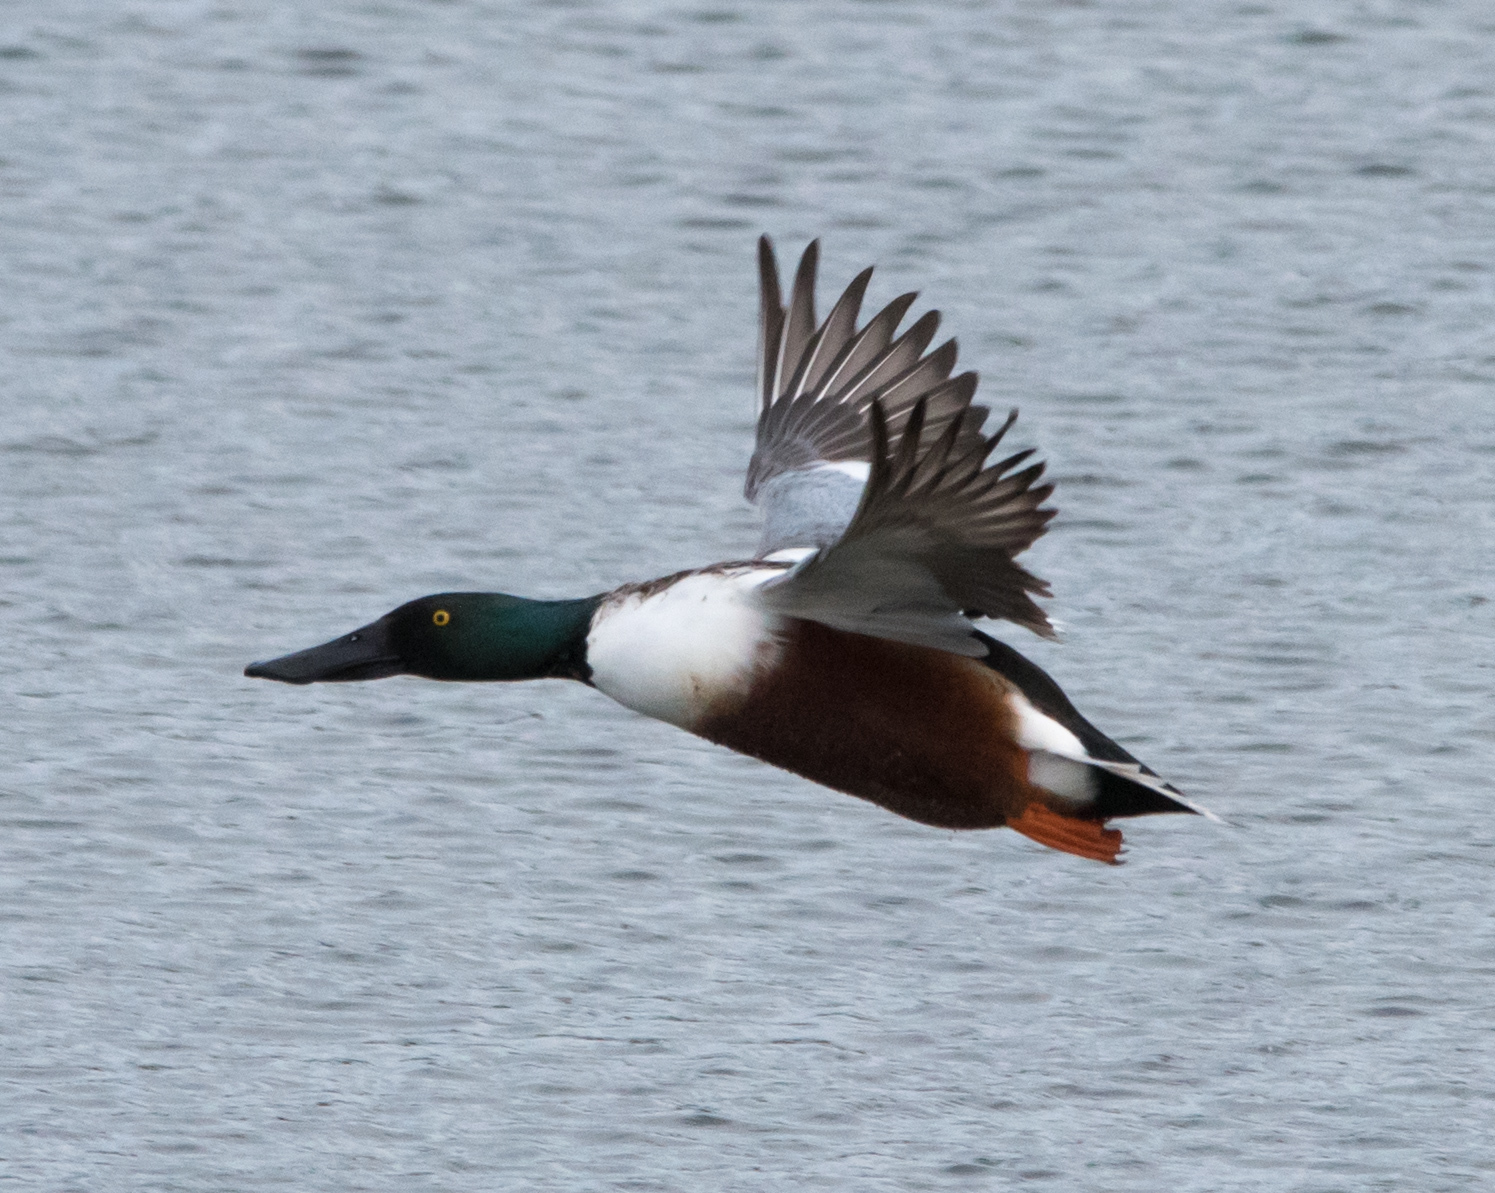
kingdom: Animalia
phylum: Chordata
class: Aves
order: Anseriformes
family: Anatidae
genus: Spatula
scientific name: Spatula clypeata
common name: Northern shoveler
